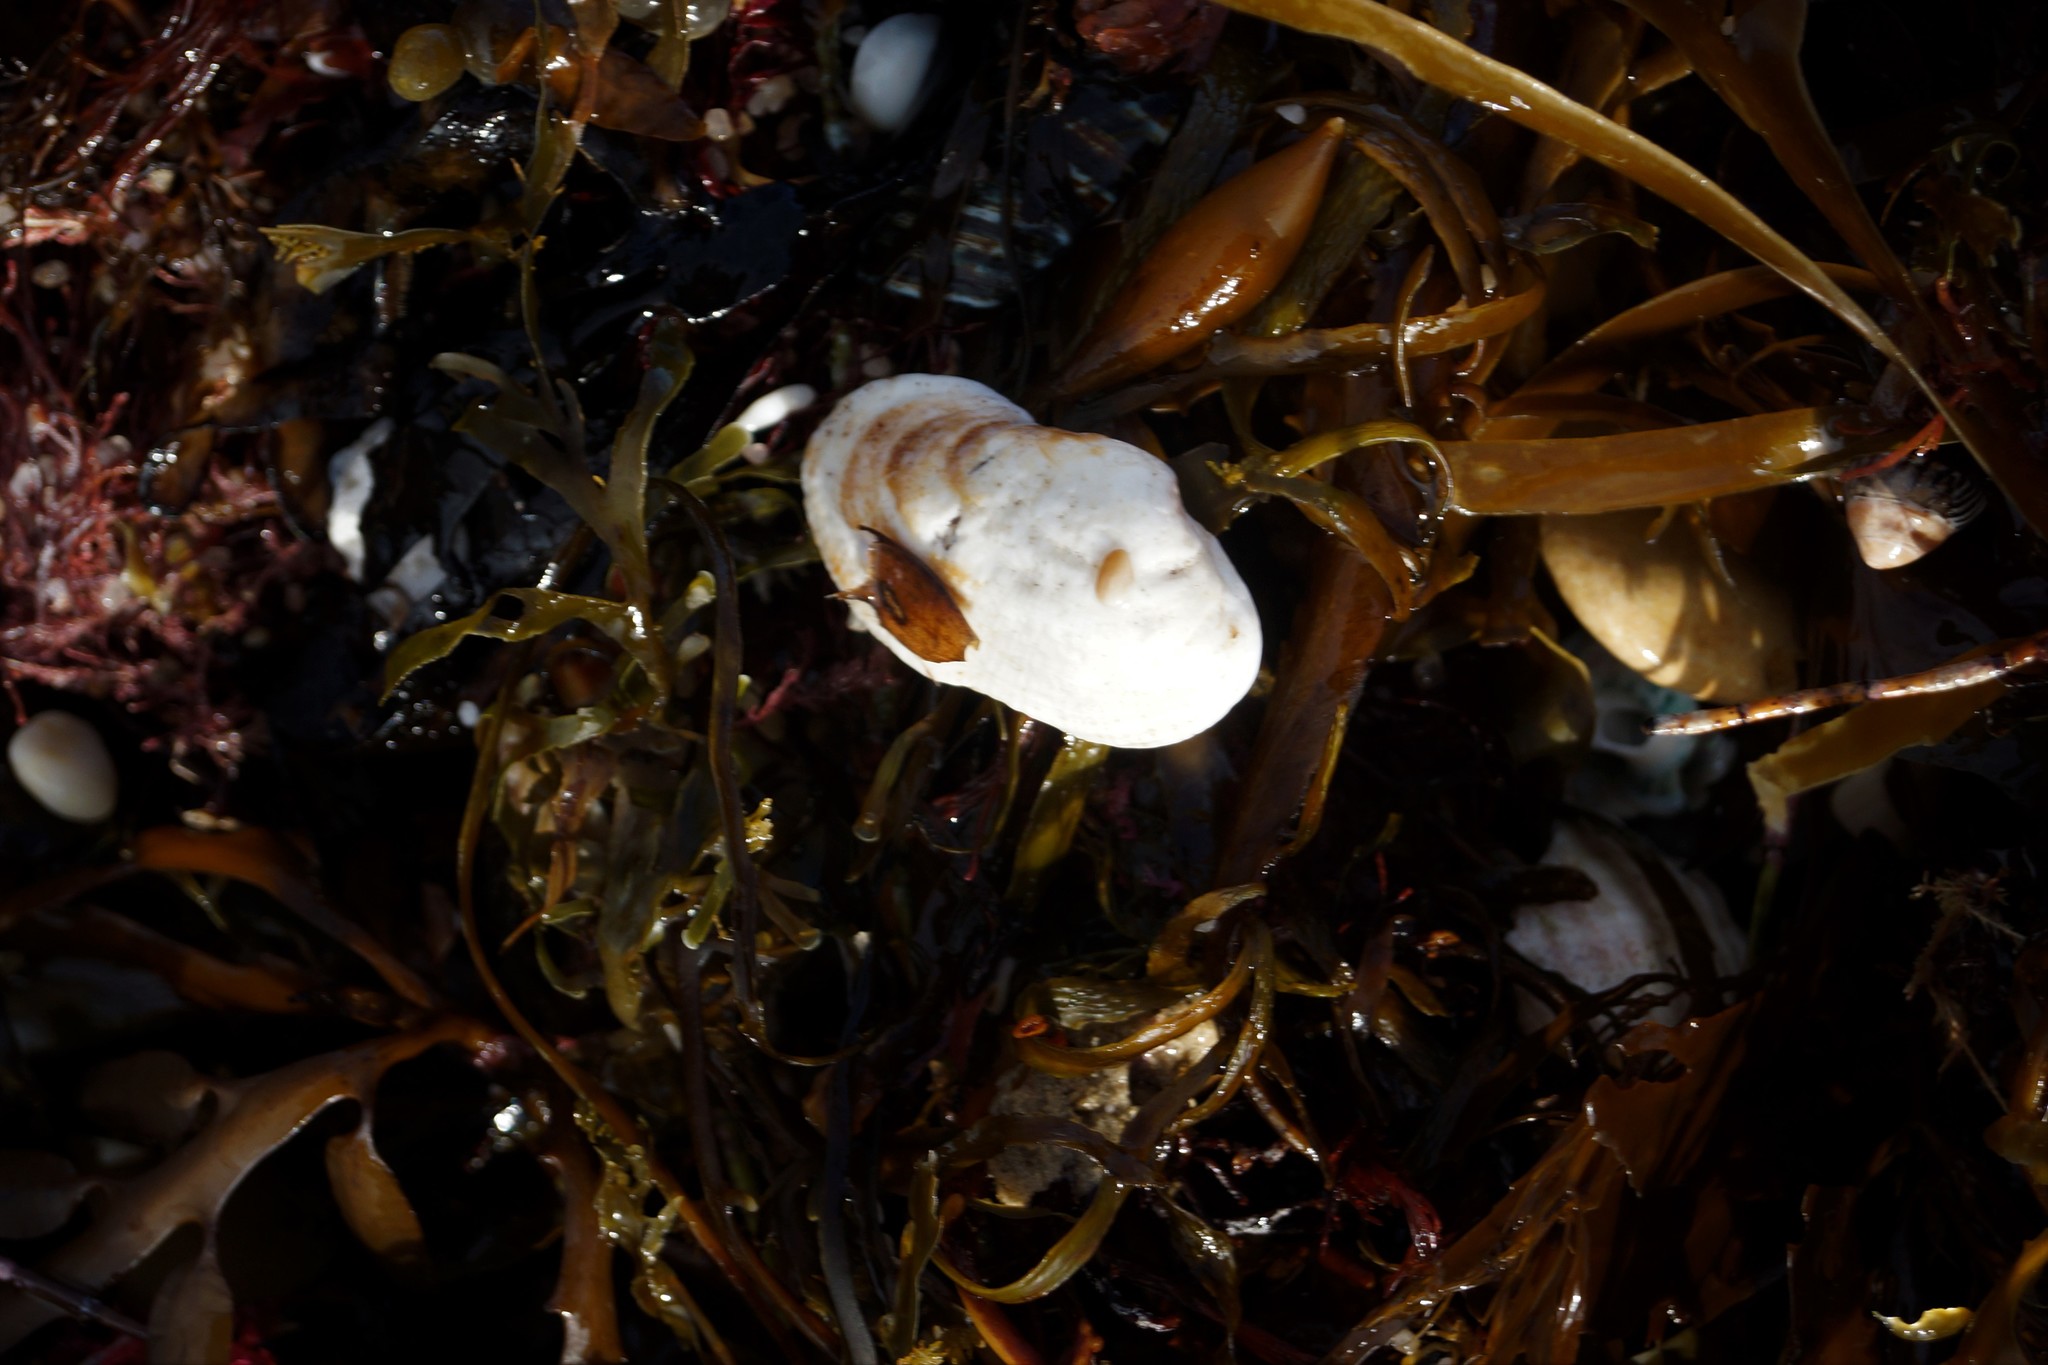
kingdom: Animalia
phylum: Mollusca
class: Bivalvia
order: Arcida
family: Arcidae
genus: Barbatia
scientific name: Barbatia pistachia
